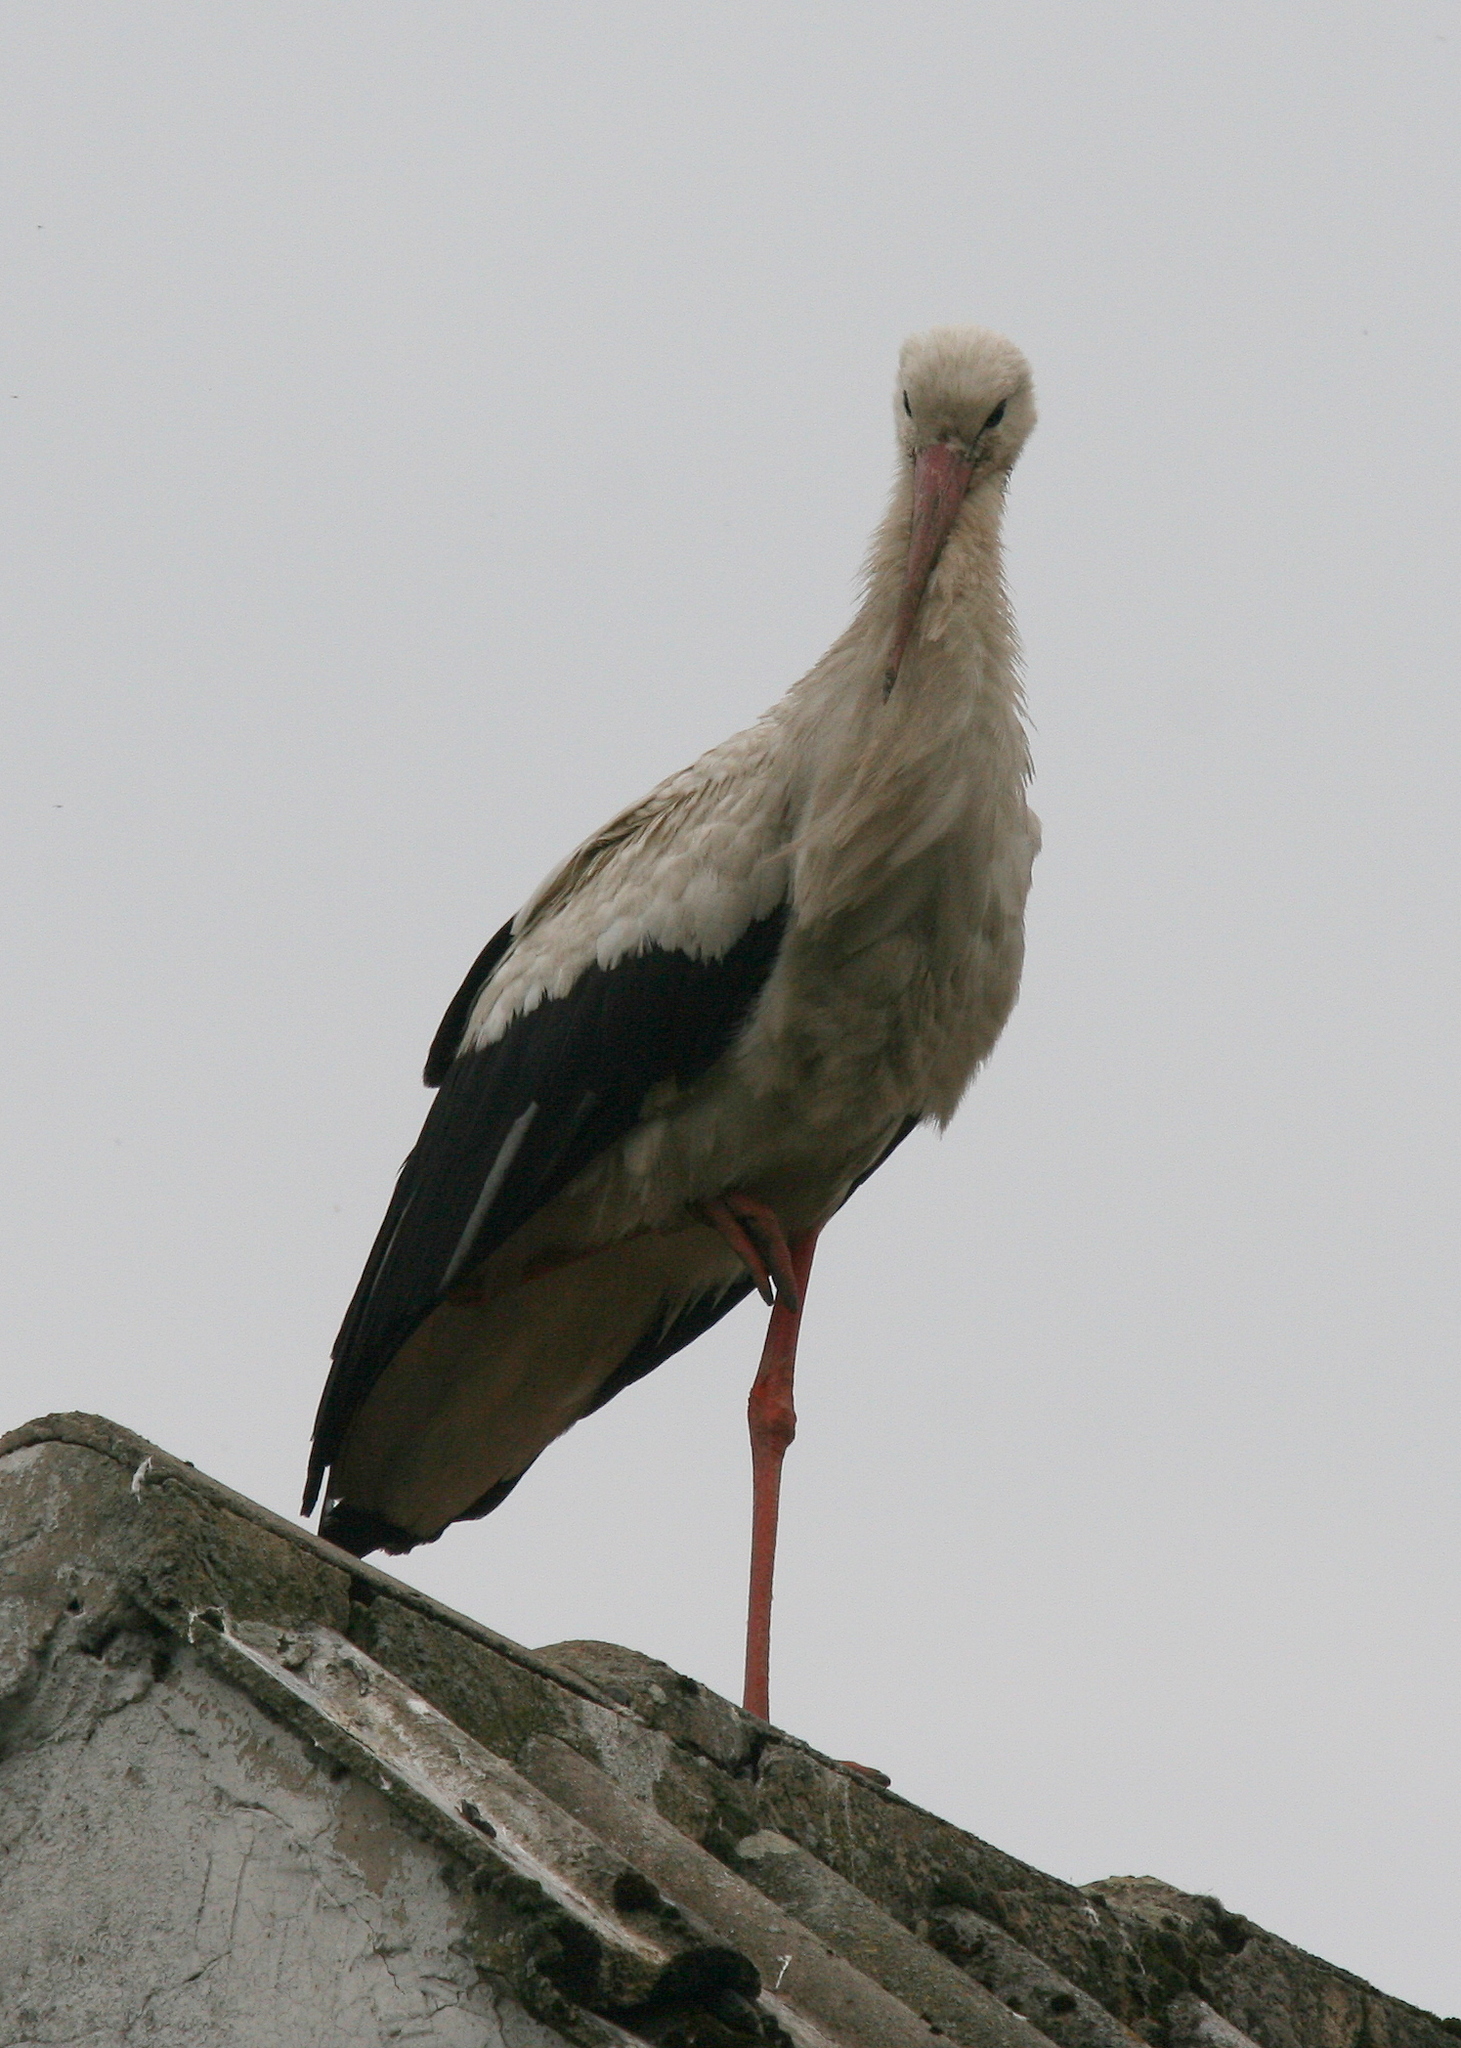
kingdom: Animalia
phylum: Chordata
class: Aves
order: Ciconiiformes
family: Ciconiidae
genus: Ciconia
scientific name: Ciconia ciconia
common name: White stork
